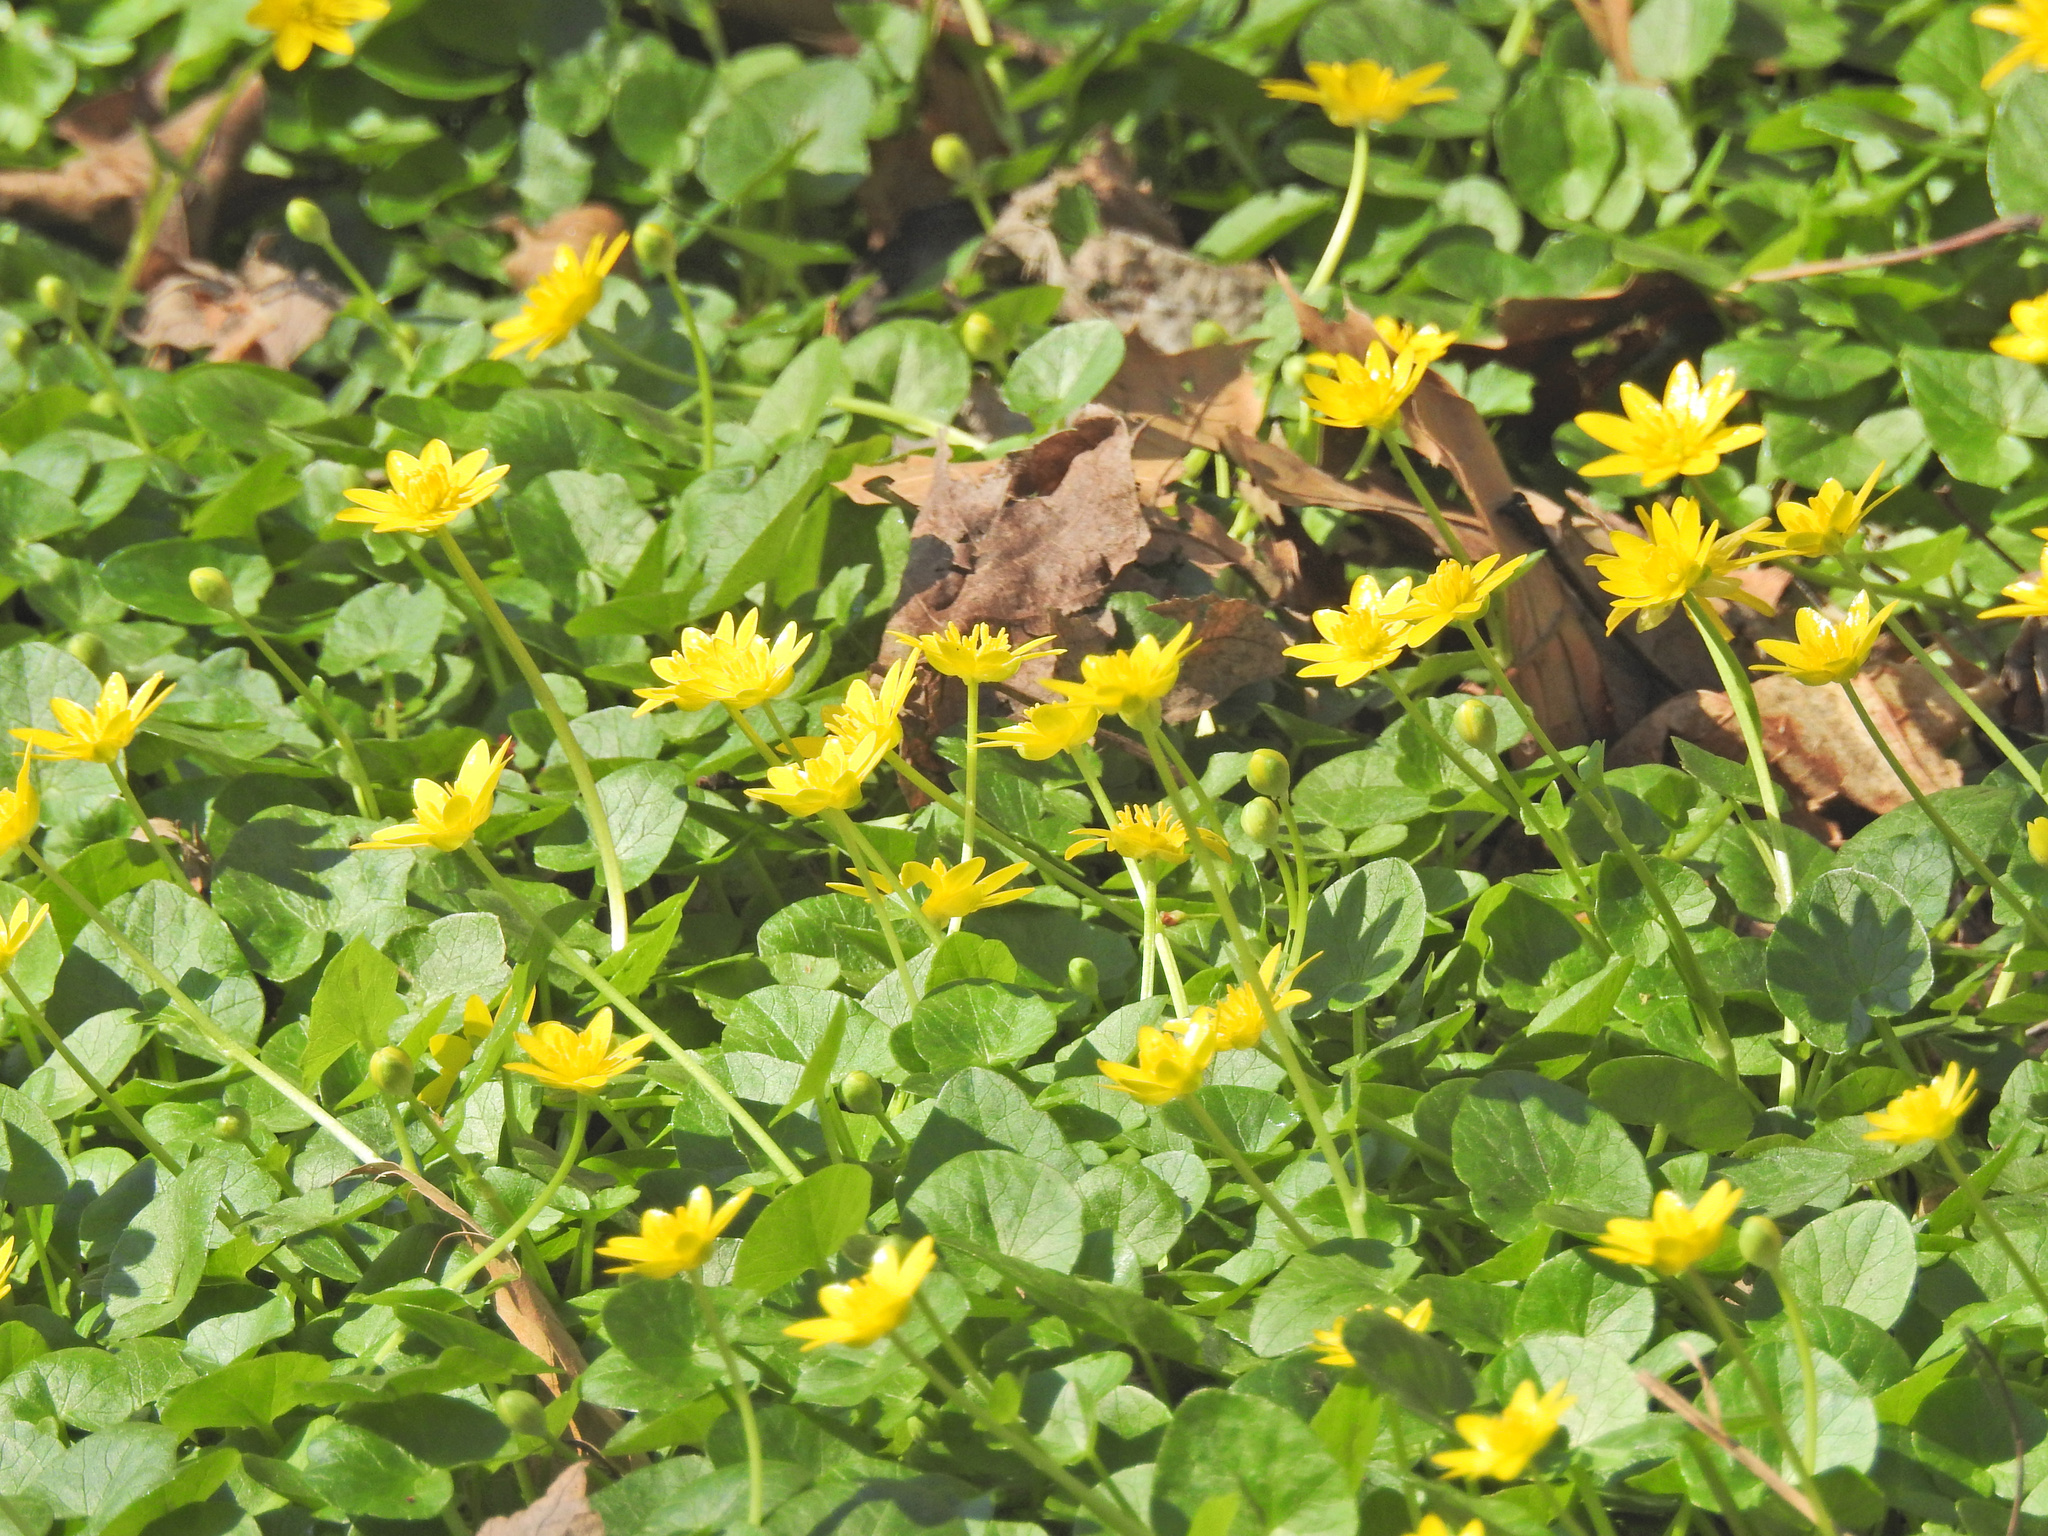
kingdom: Plantae
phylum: Tracheophyta
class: Magnoliopsida
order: Ranunculales
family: Ranunculaceae
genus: Ficaria
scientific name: Ficaria verna
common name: Lesser celandine
